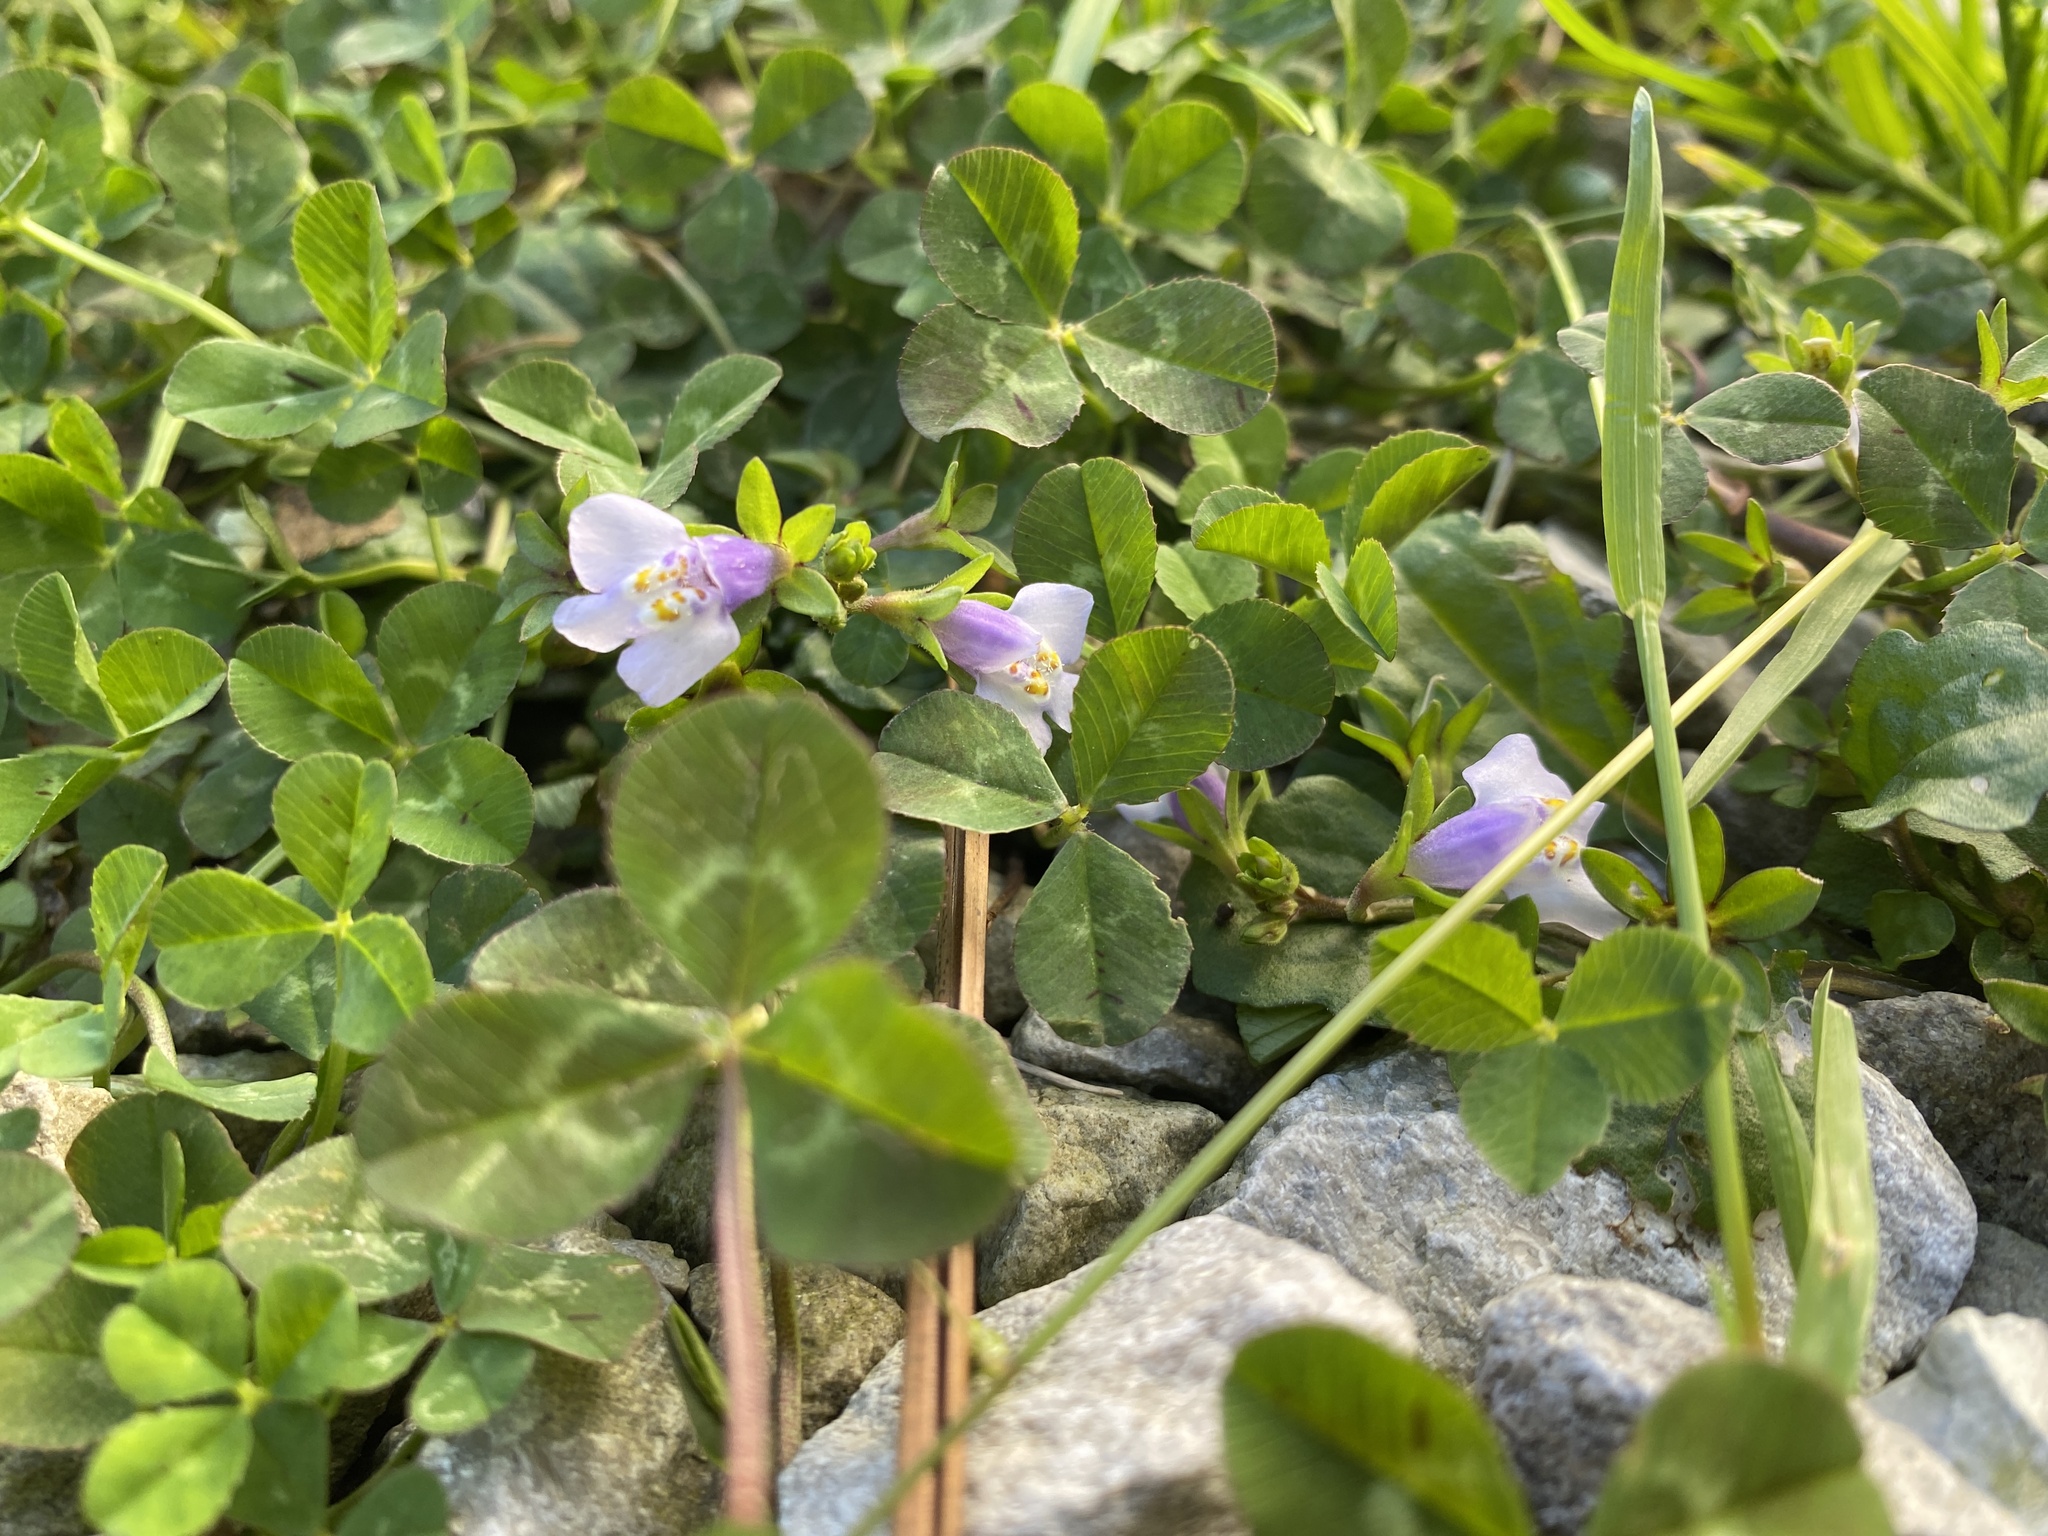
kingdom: Plantae
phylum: Tracheophyta
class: Magnoliopsida
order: Lamiales
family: Mazaceae
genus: Mazus
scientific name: Mazus pumilus
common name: Japanese mazus
